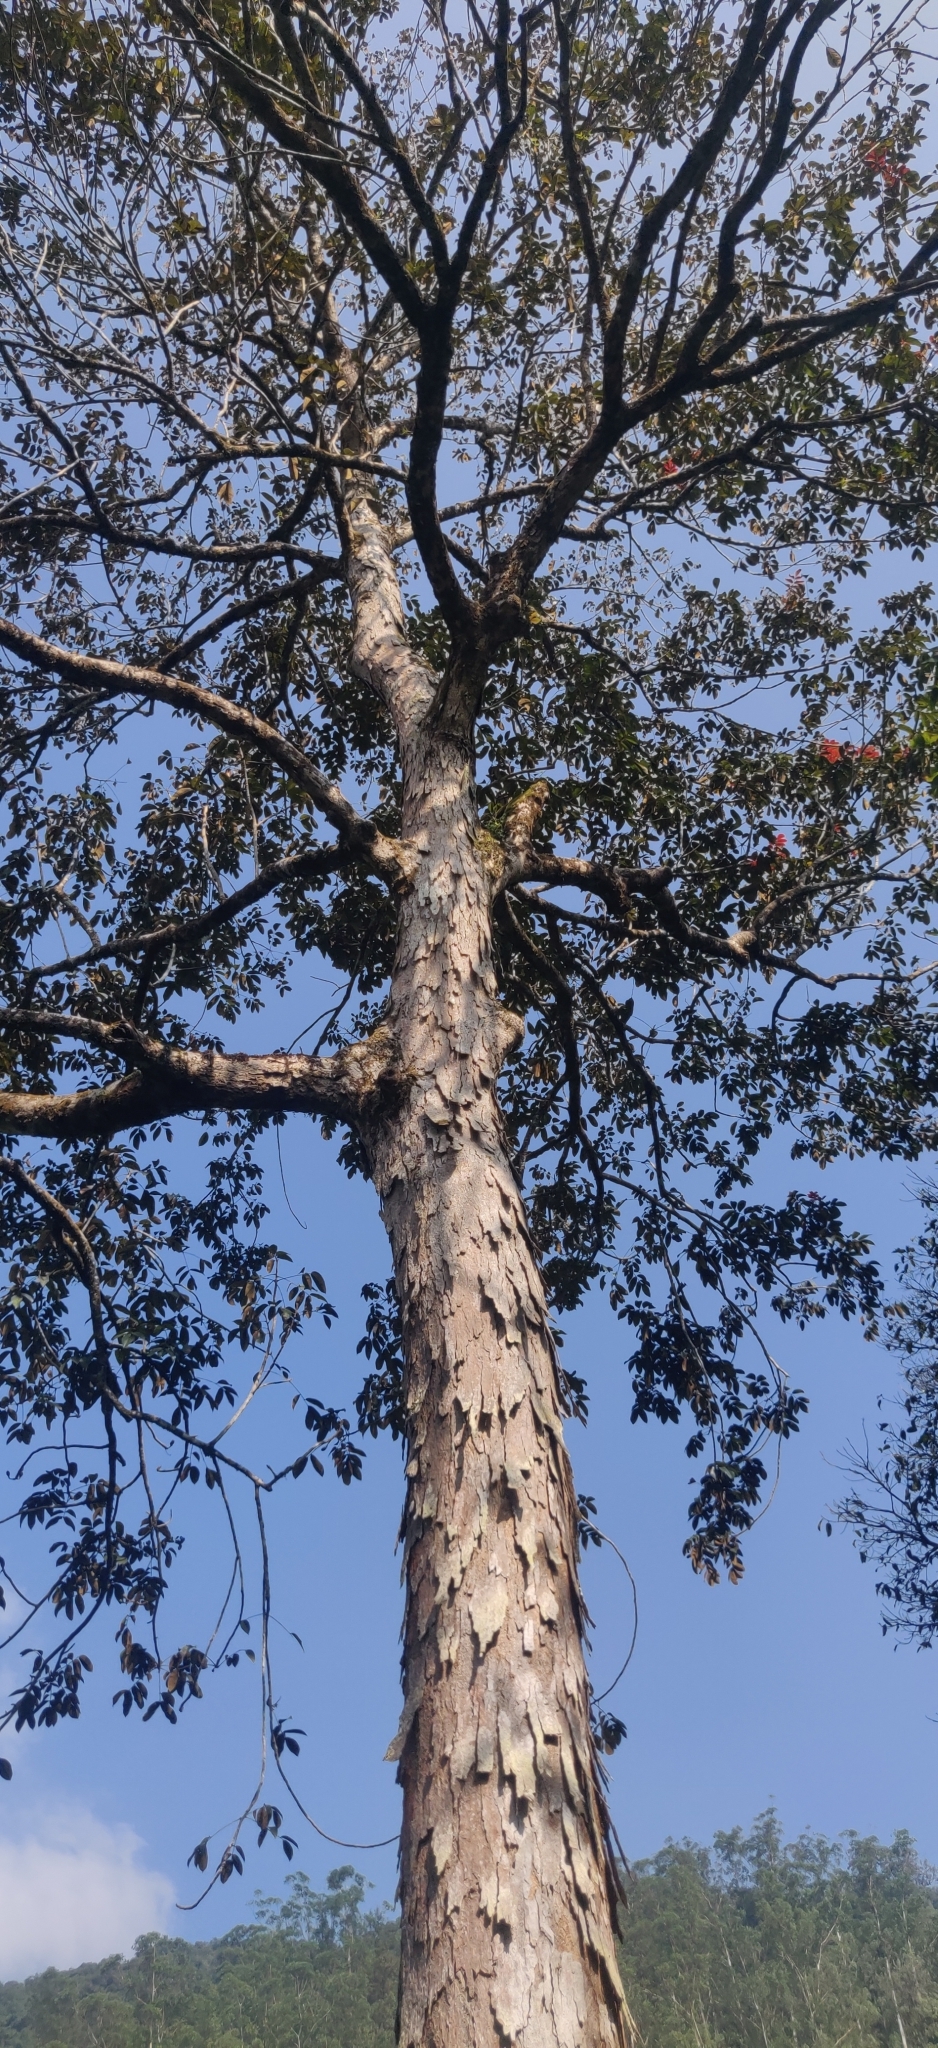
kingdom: Plantae
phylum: Tracheophyta
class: Magnoliopsida
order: Sapindales
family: Burseraceae
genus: Canarium
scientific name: Canarium strictum
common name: Indian white-mahogany
